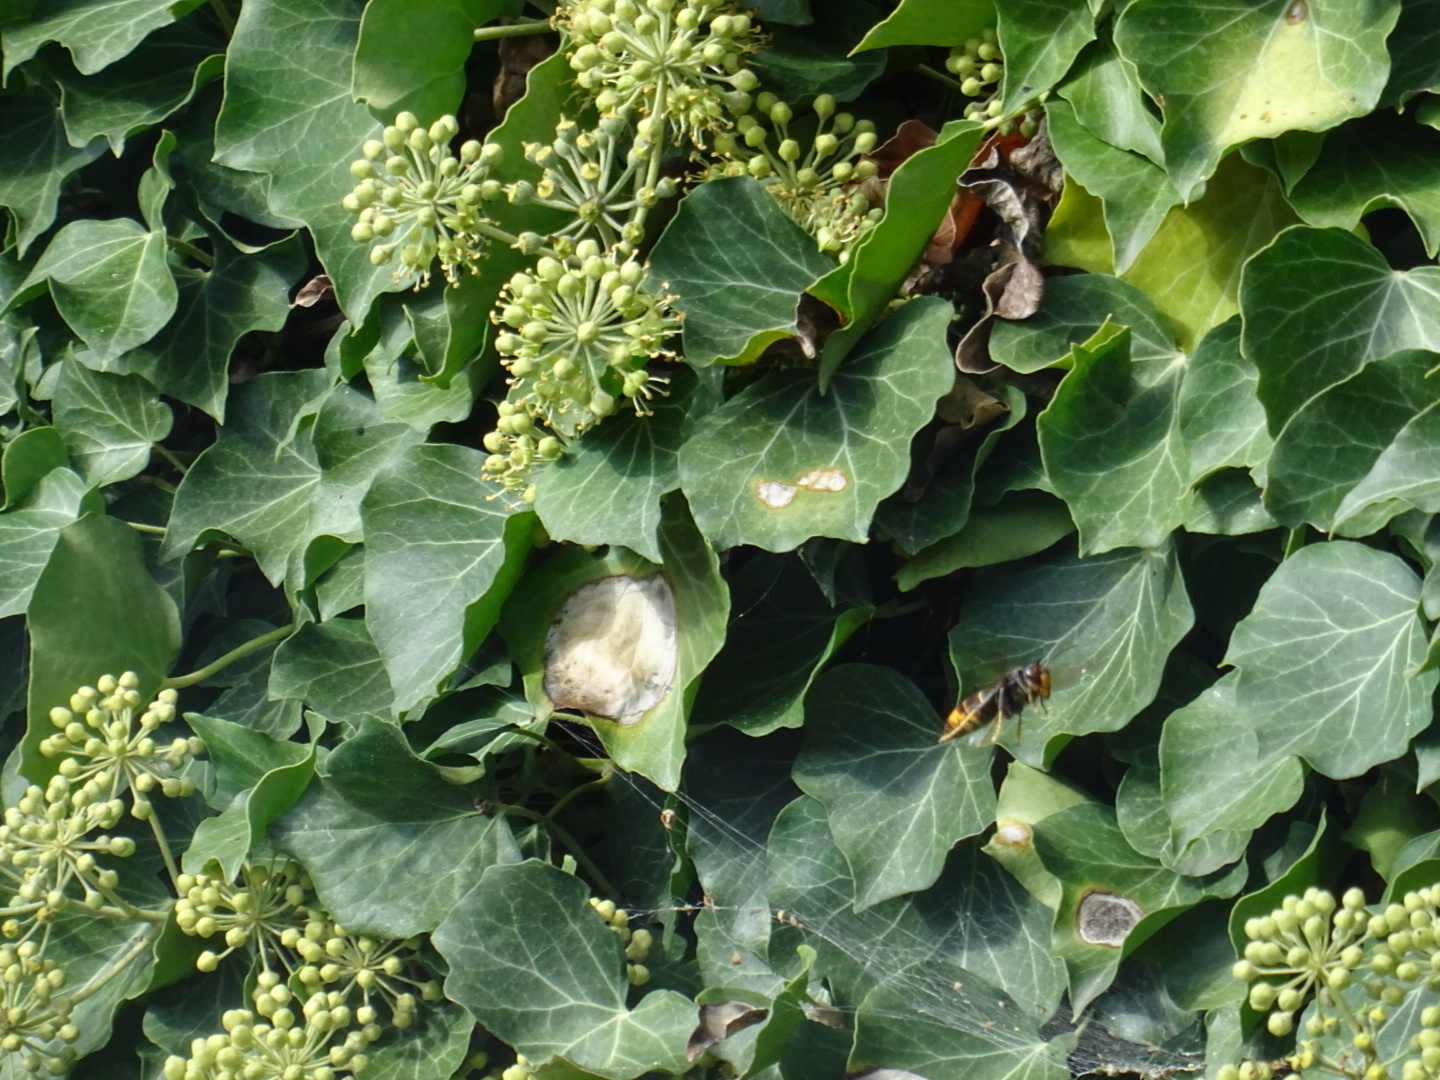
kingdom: Animalia
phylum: Arthropoda
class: Insecta
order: Hymenoptera
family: Vespidae
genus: Vespa
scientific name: Vespa velutina
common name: Asian hornet
